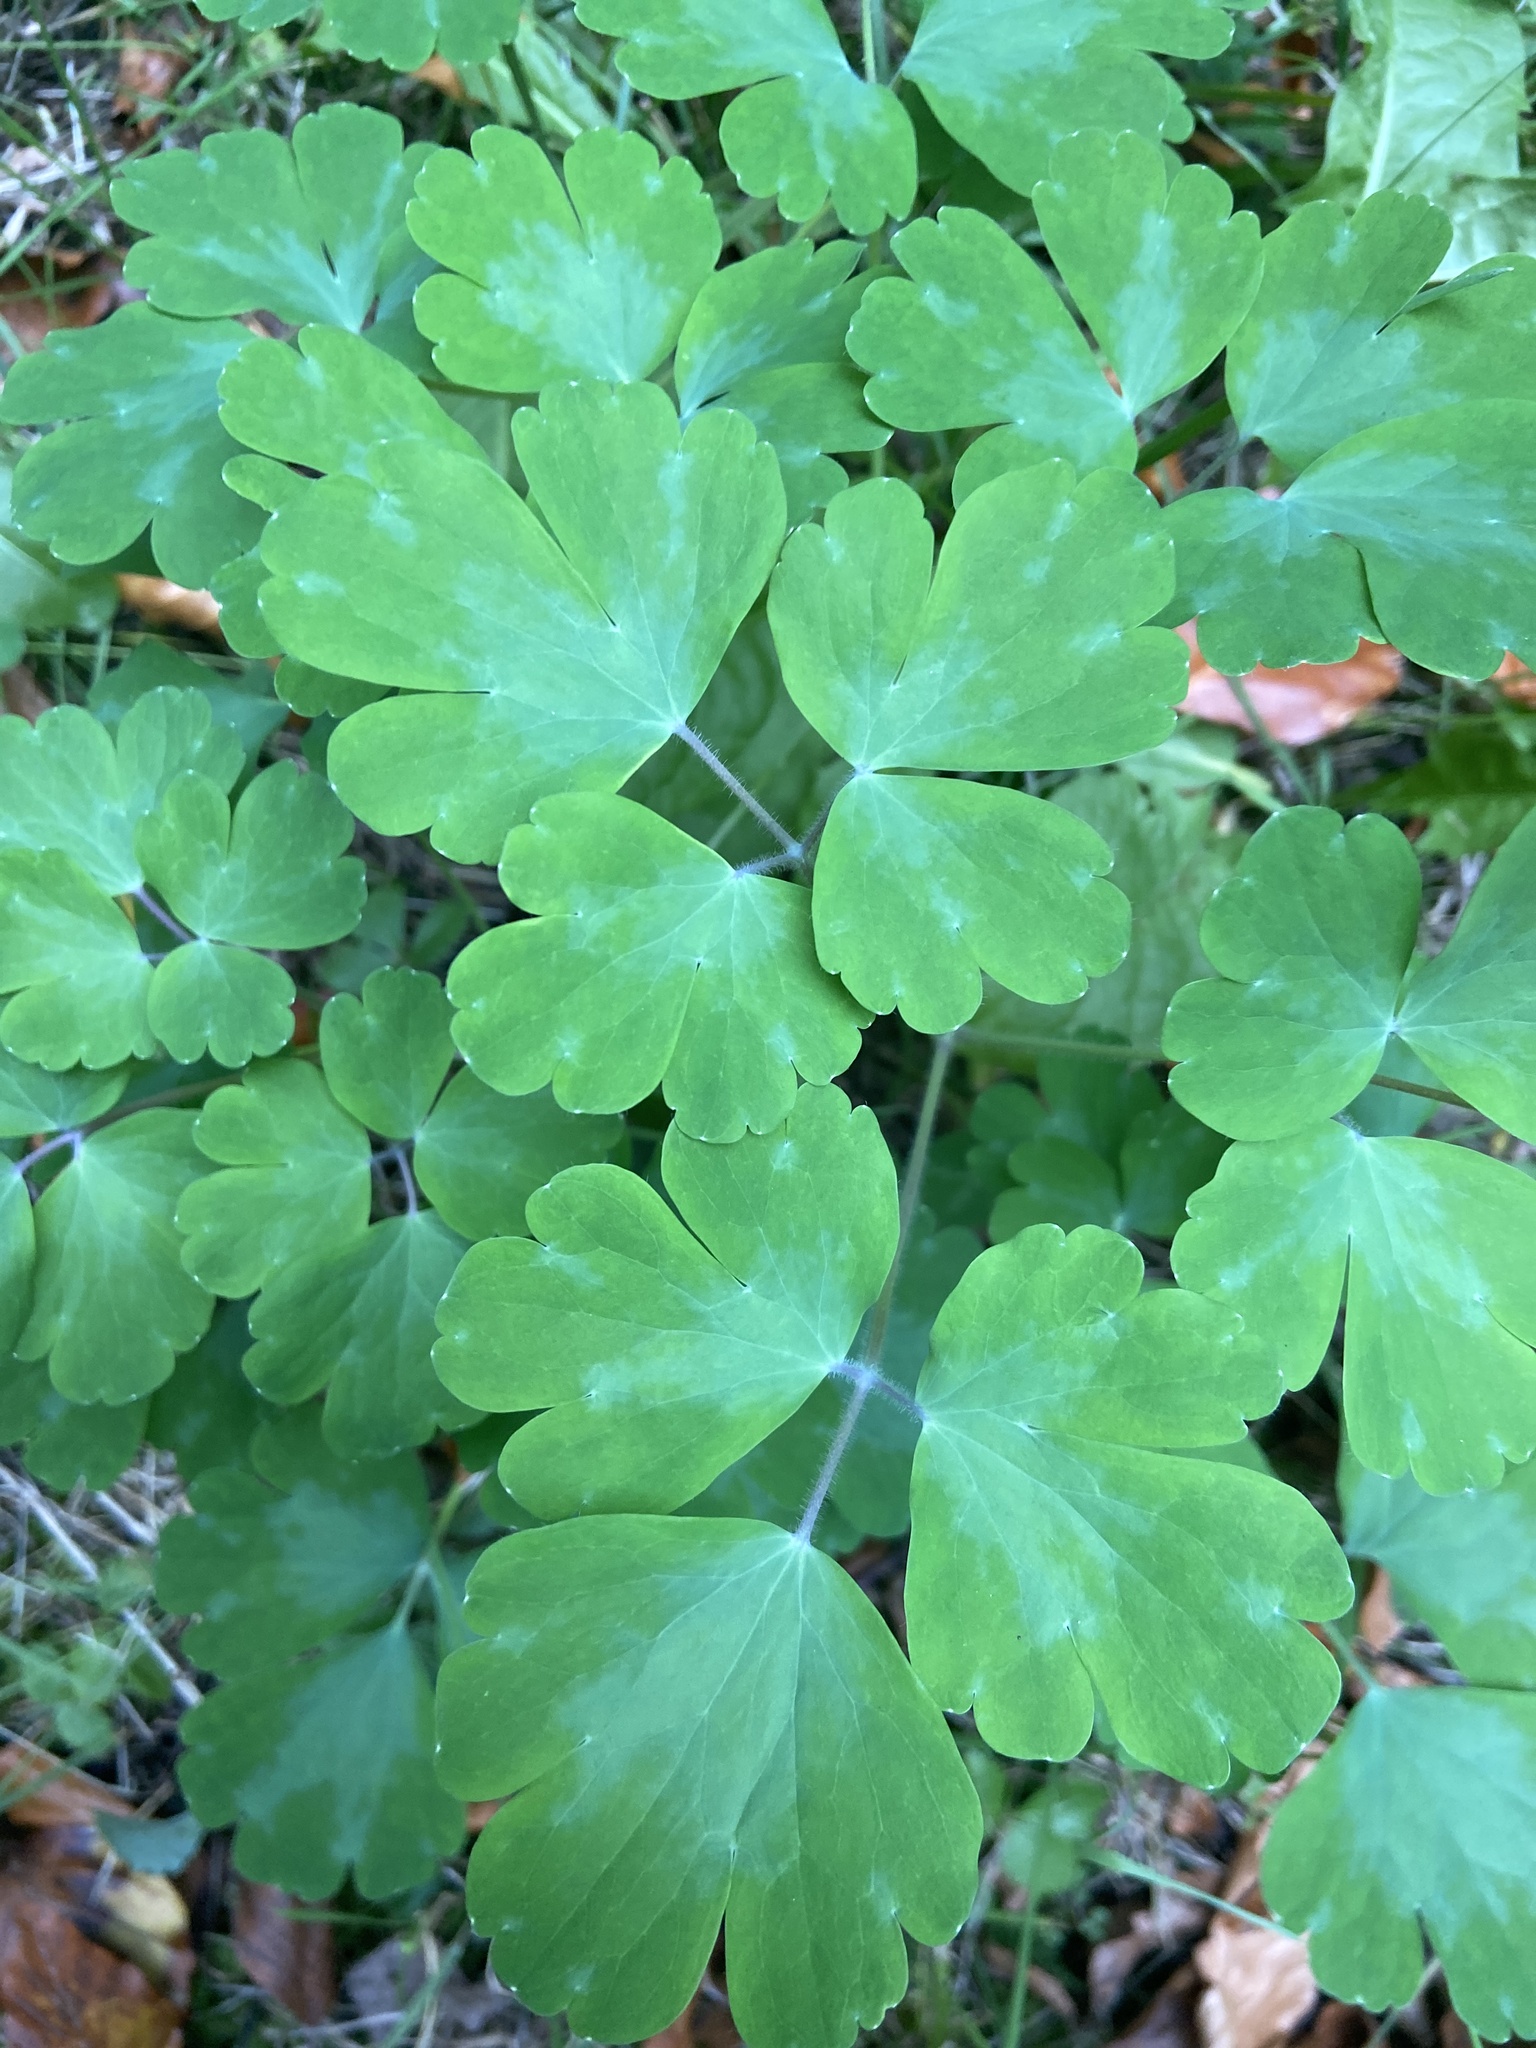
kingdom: Plantae
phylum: Tracheophyta
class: Magnoliopsida
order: Ranunculales
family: Ranunculaceae
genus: Aquilegia
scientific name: Aquilegia vulgaris
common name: Columbine
